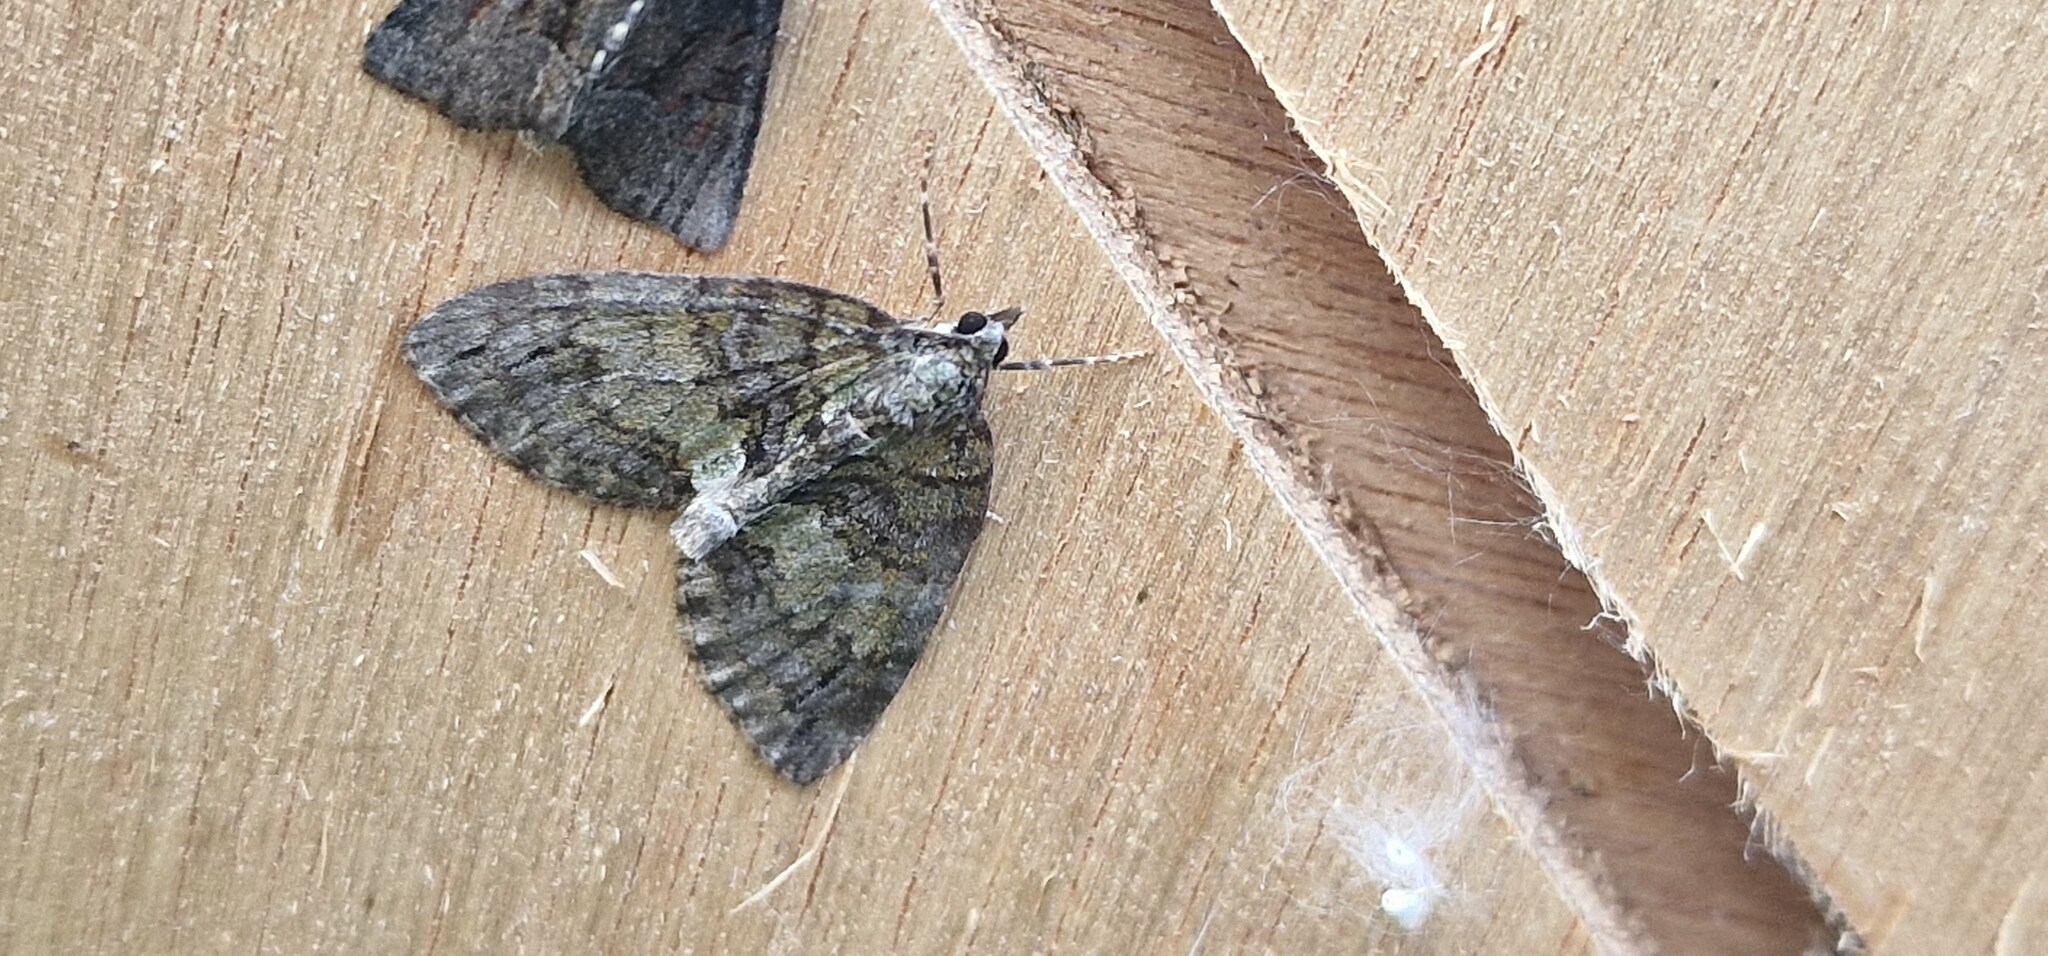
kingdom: Animalia
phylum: Arthropoda
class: Insecta
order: Lepidoptera
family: Geometridae
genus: Hydriomena
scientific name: Hydriomena impluviata
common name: May highflyer
